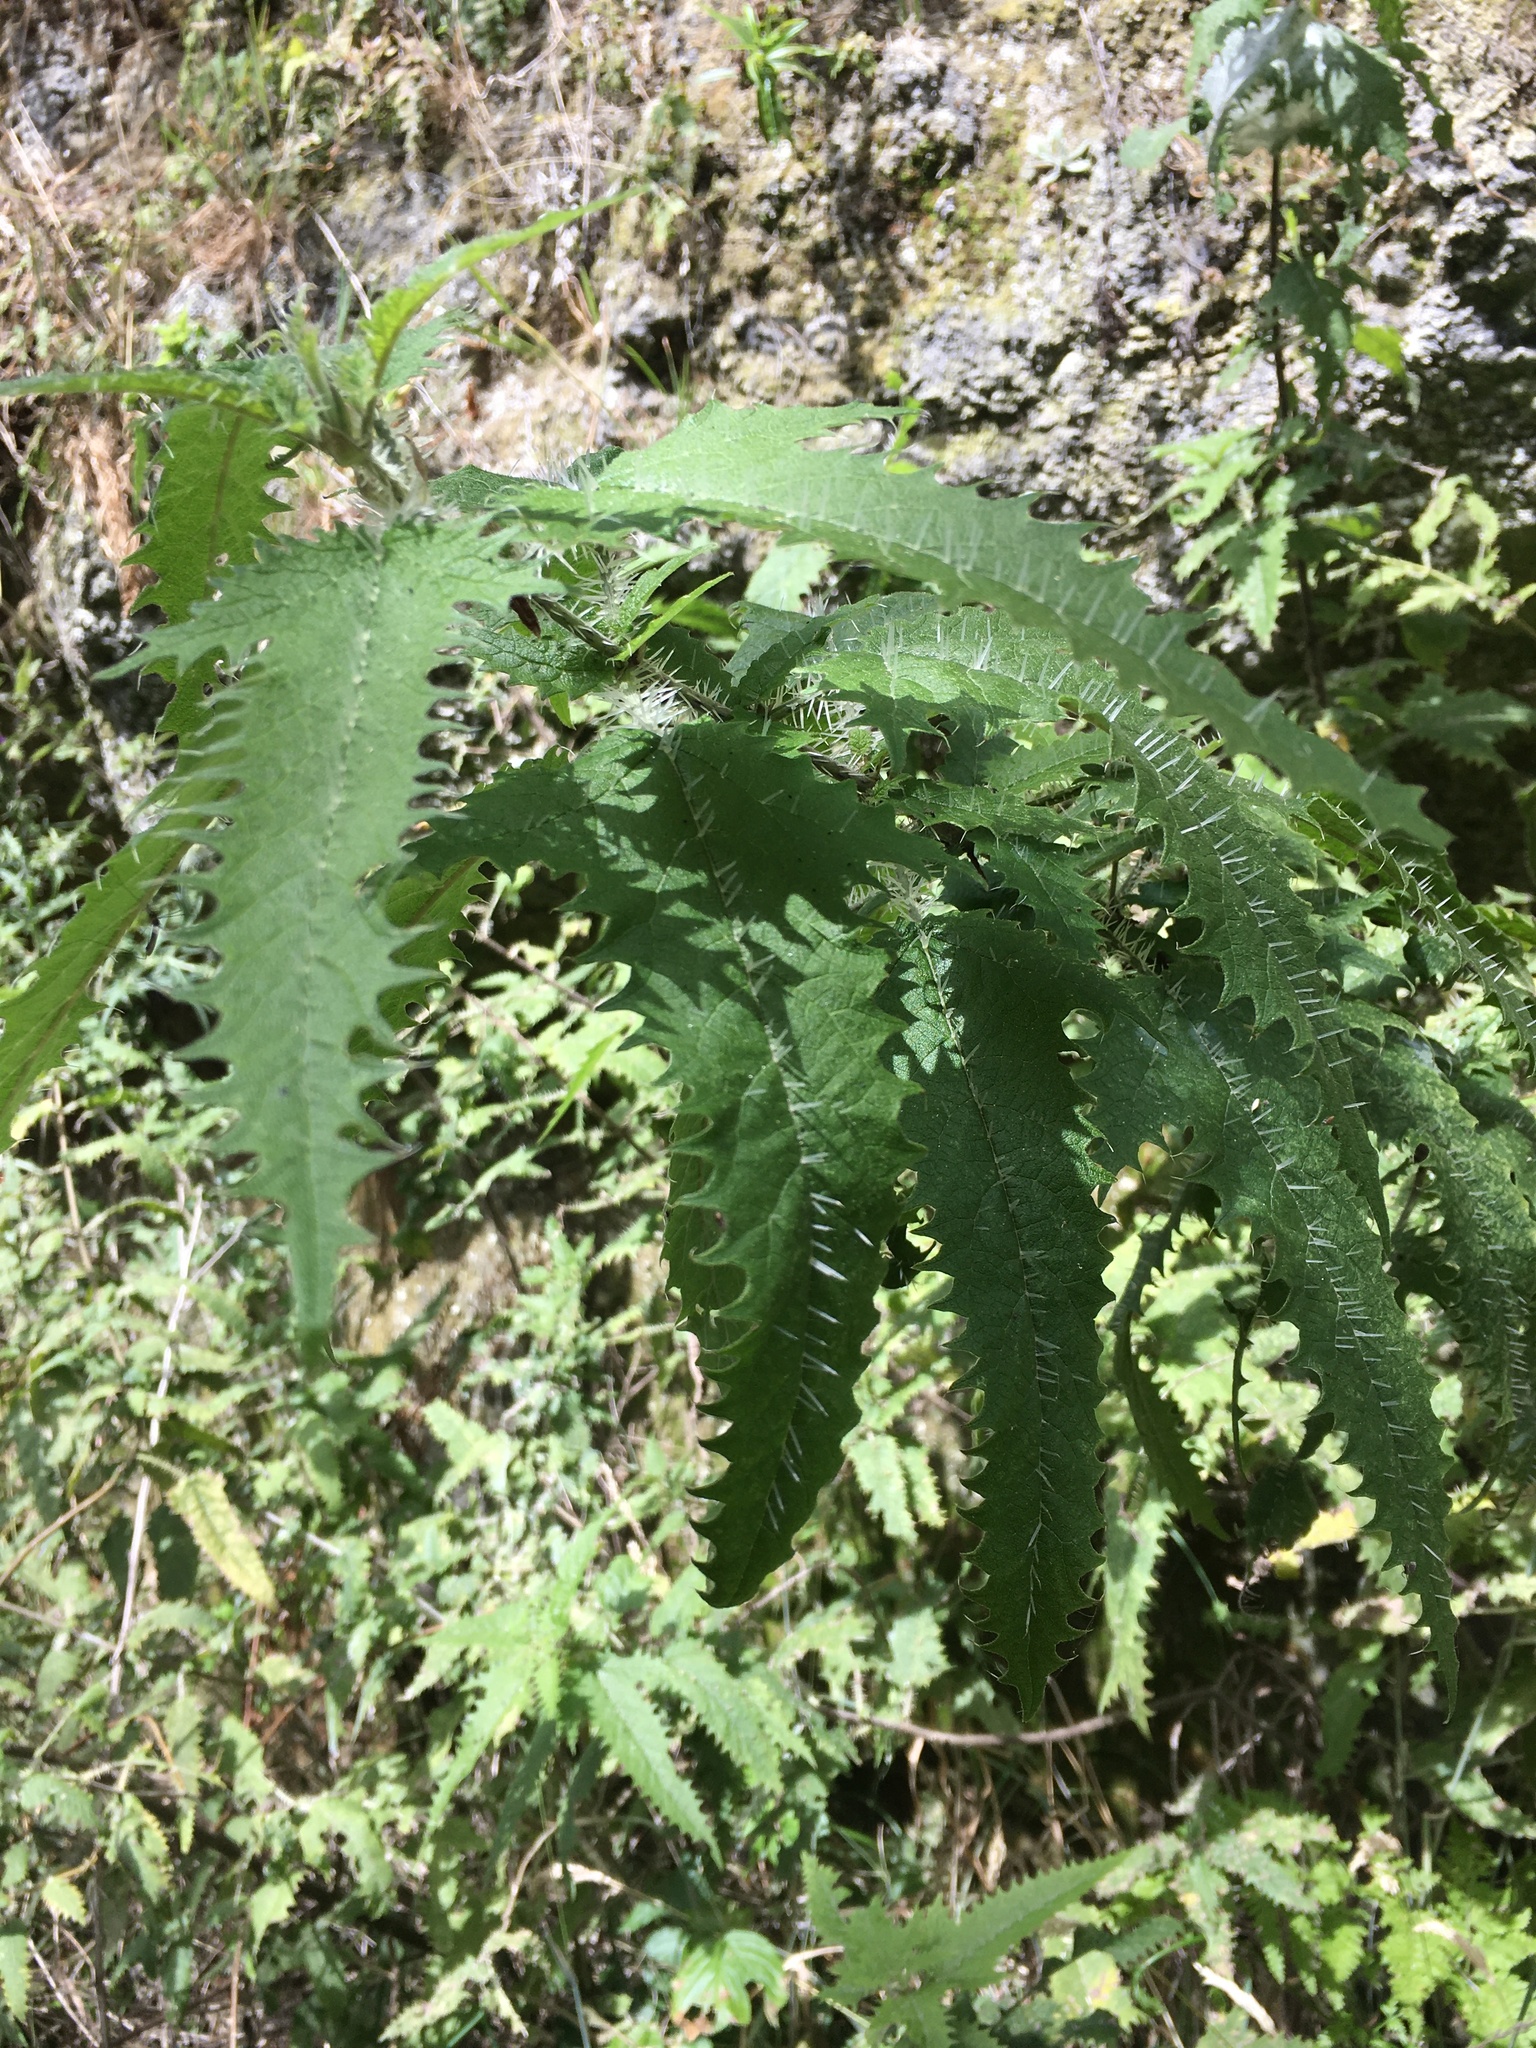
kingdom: Plantae
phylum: Tracheophyta
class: Magnoliopsida
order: Rosales
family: Urticaceae
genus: Urtica
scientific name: Urtica ferox
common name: Tree nettle
